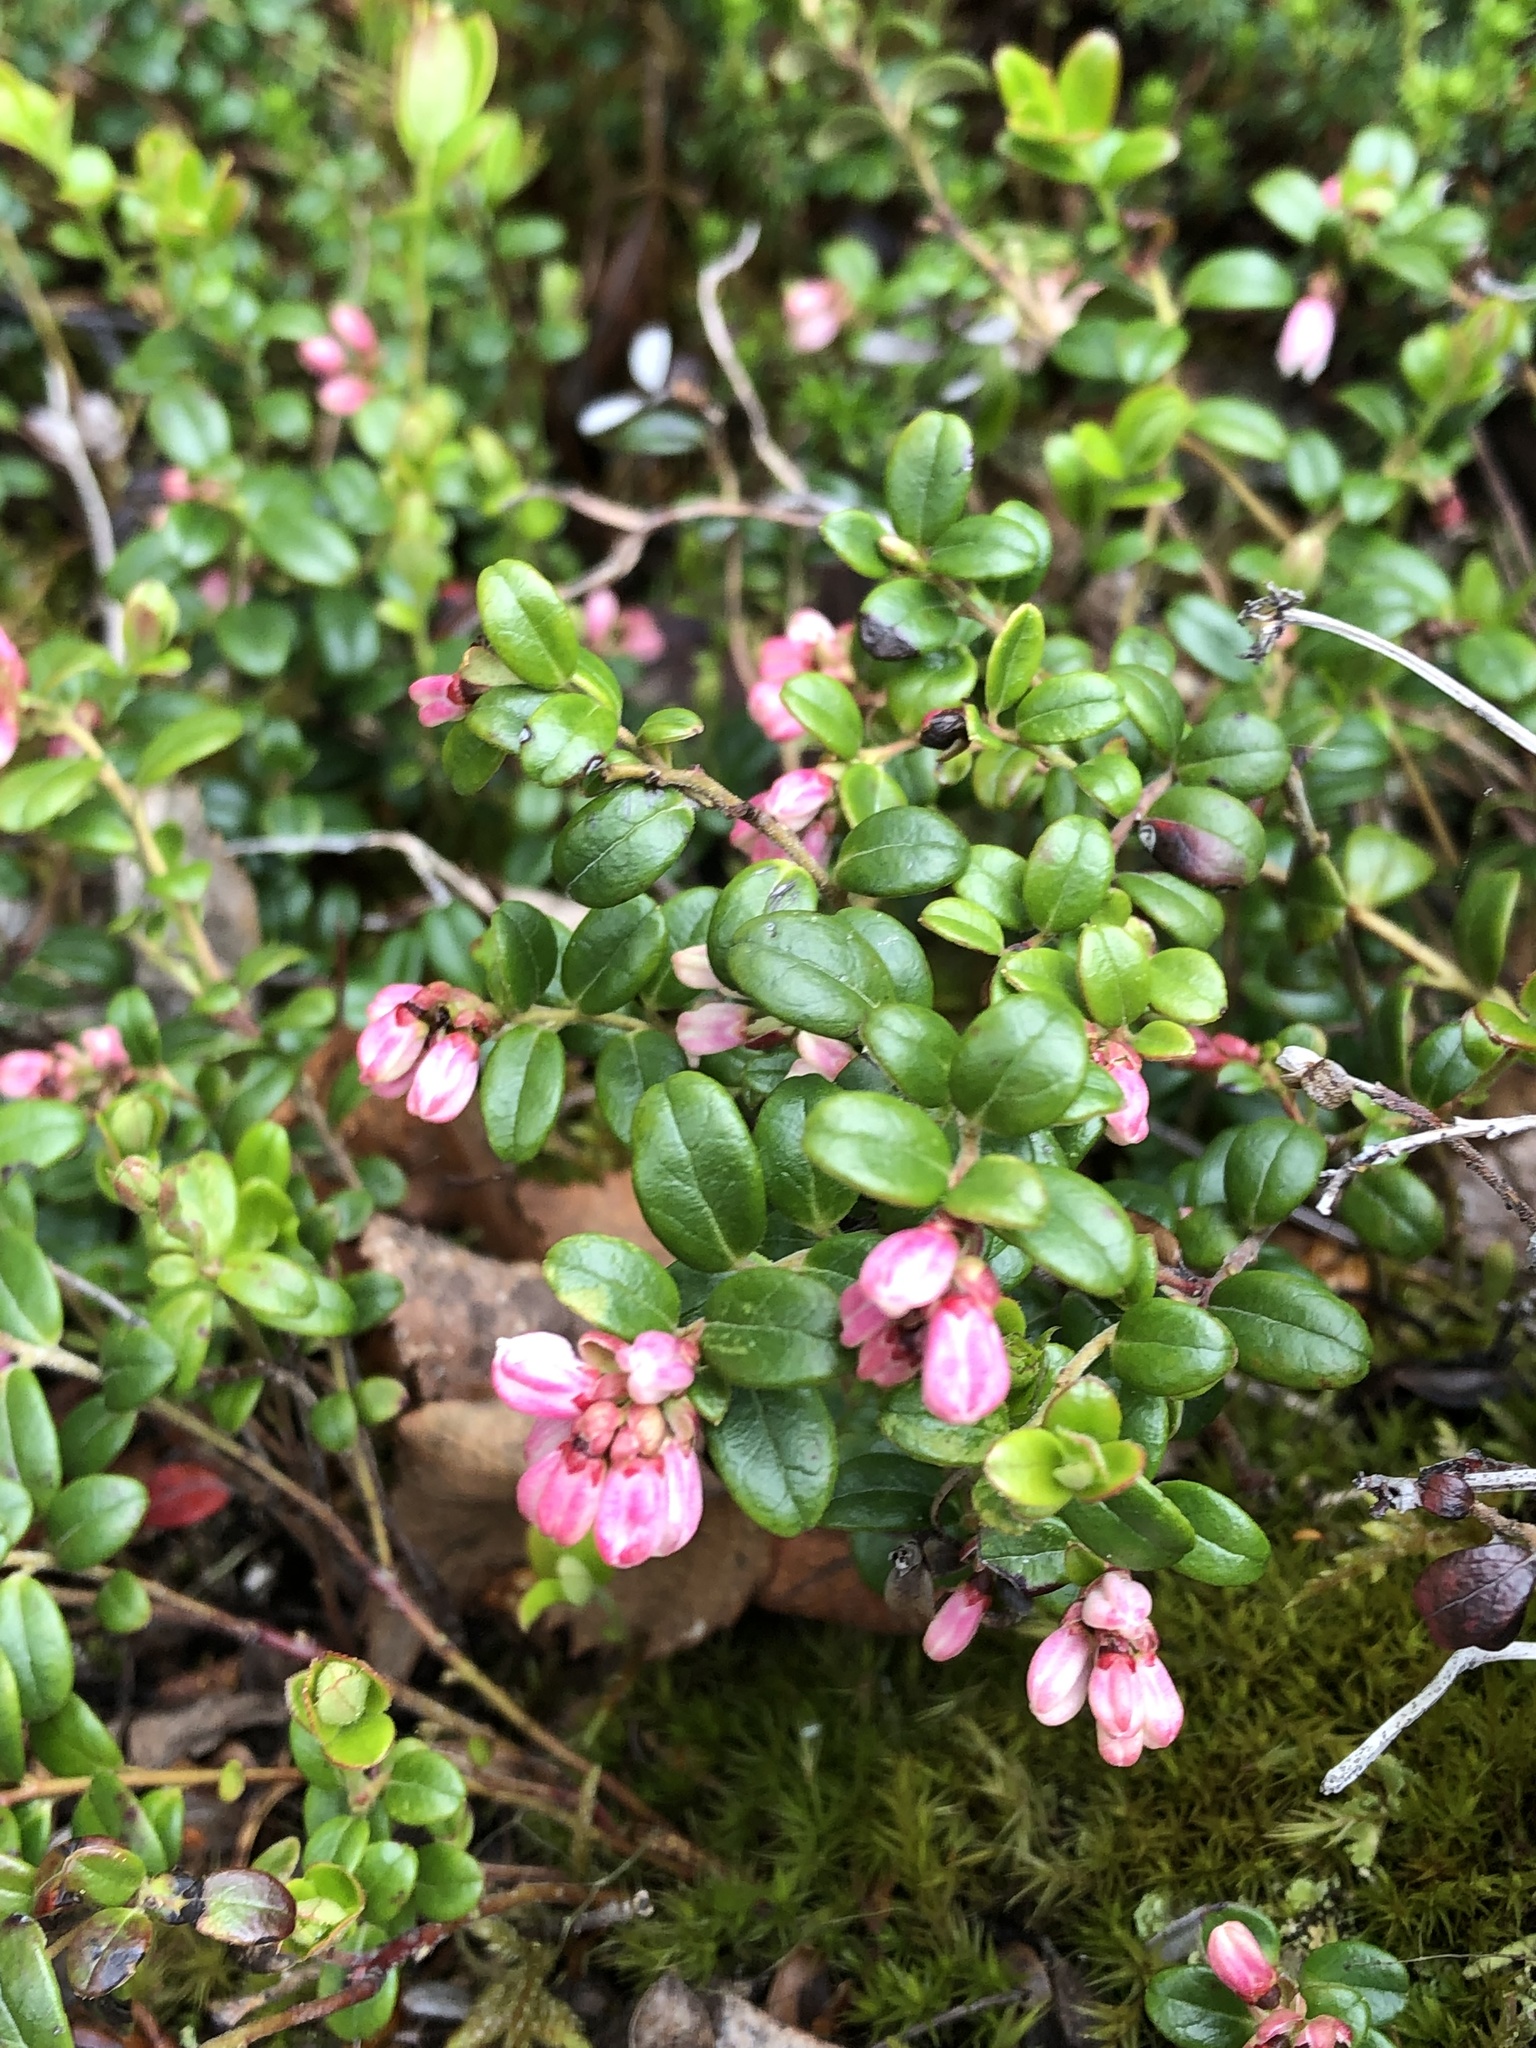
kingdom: Plantae
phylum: Tracheophyta
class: Magnoliopsida
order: Ericales
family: Ericaceae
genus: Vaccinium
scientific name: Vaccinium vitis-idaea
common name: Cowberry
